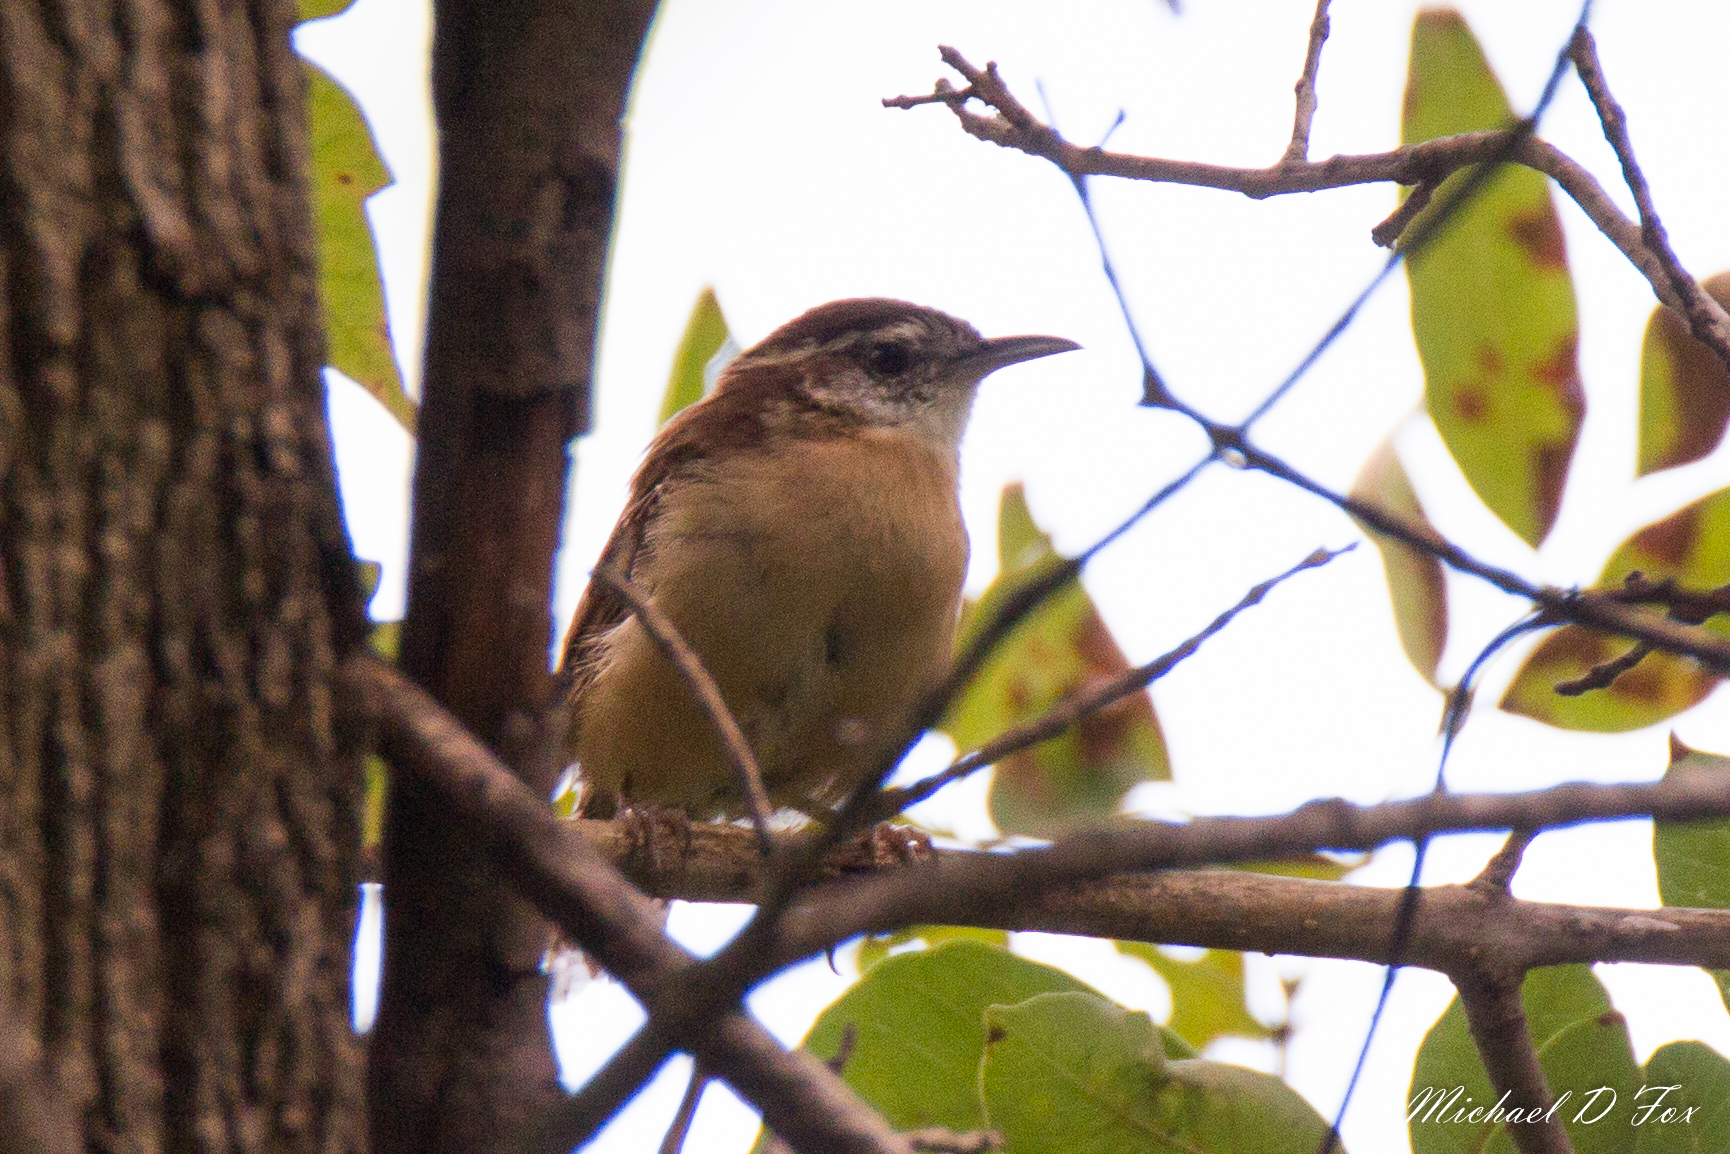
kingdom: Animalia
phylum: Chordata
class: Aves
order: Passeriformes
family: Troglodytidae
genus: Thryothorus
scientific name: Thryothorus ludovicianus
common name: Carolina wren
